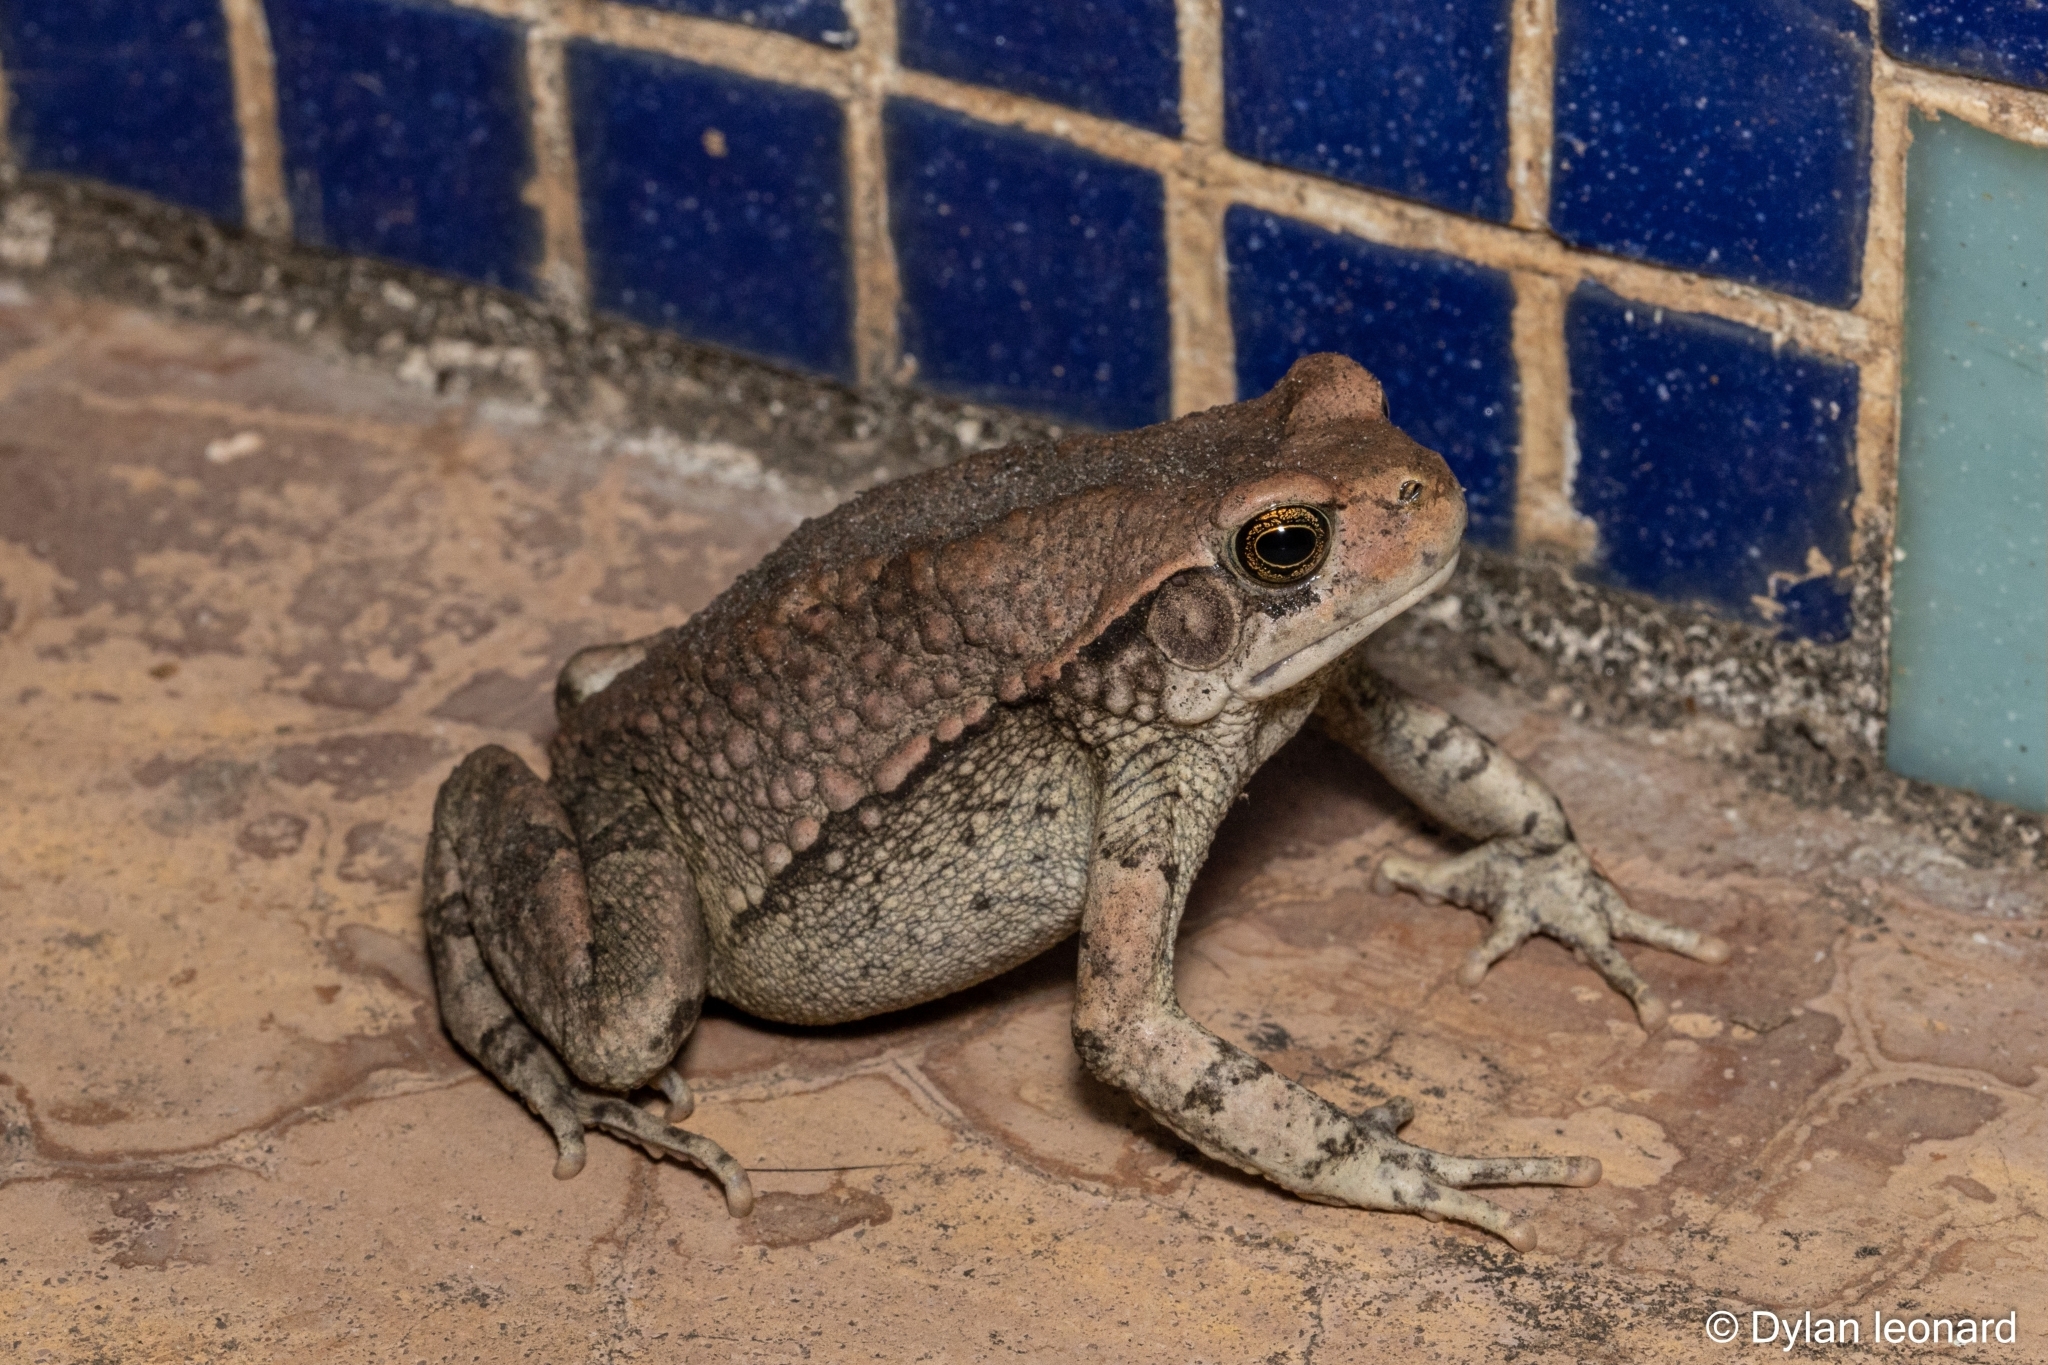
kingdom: Animalia
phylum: Chordata
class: Amphibia
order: Anura
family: Bufonidae
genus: Schismaderma
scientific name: Schismaderma carens
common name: African split-skin toad
